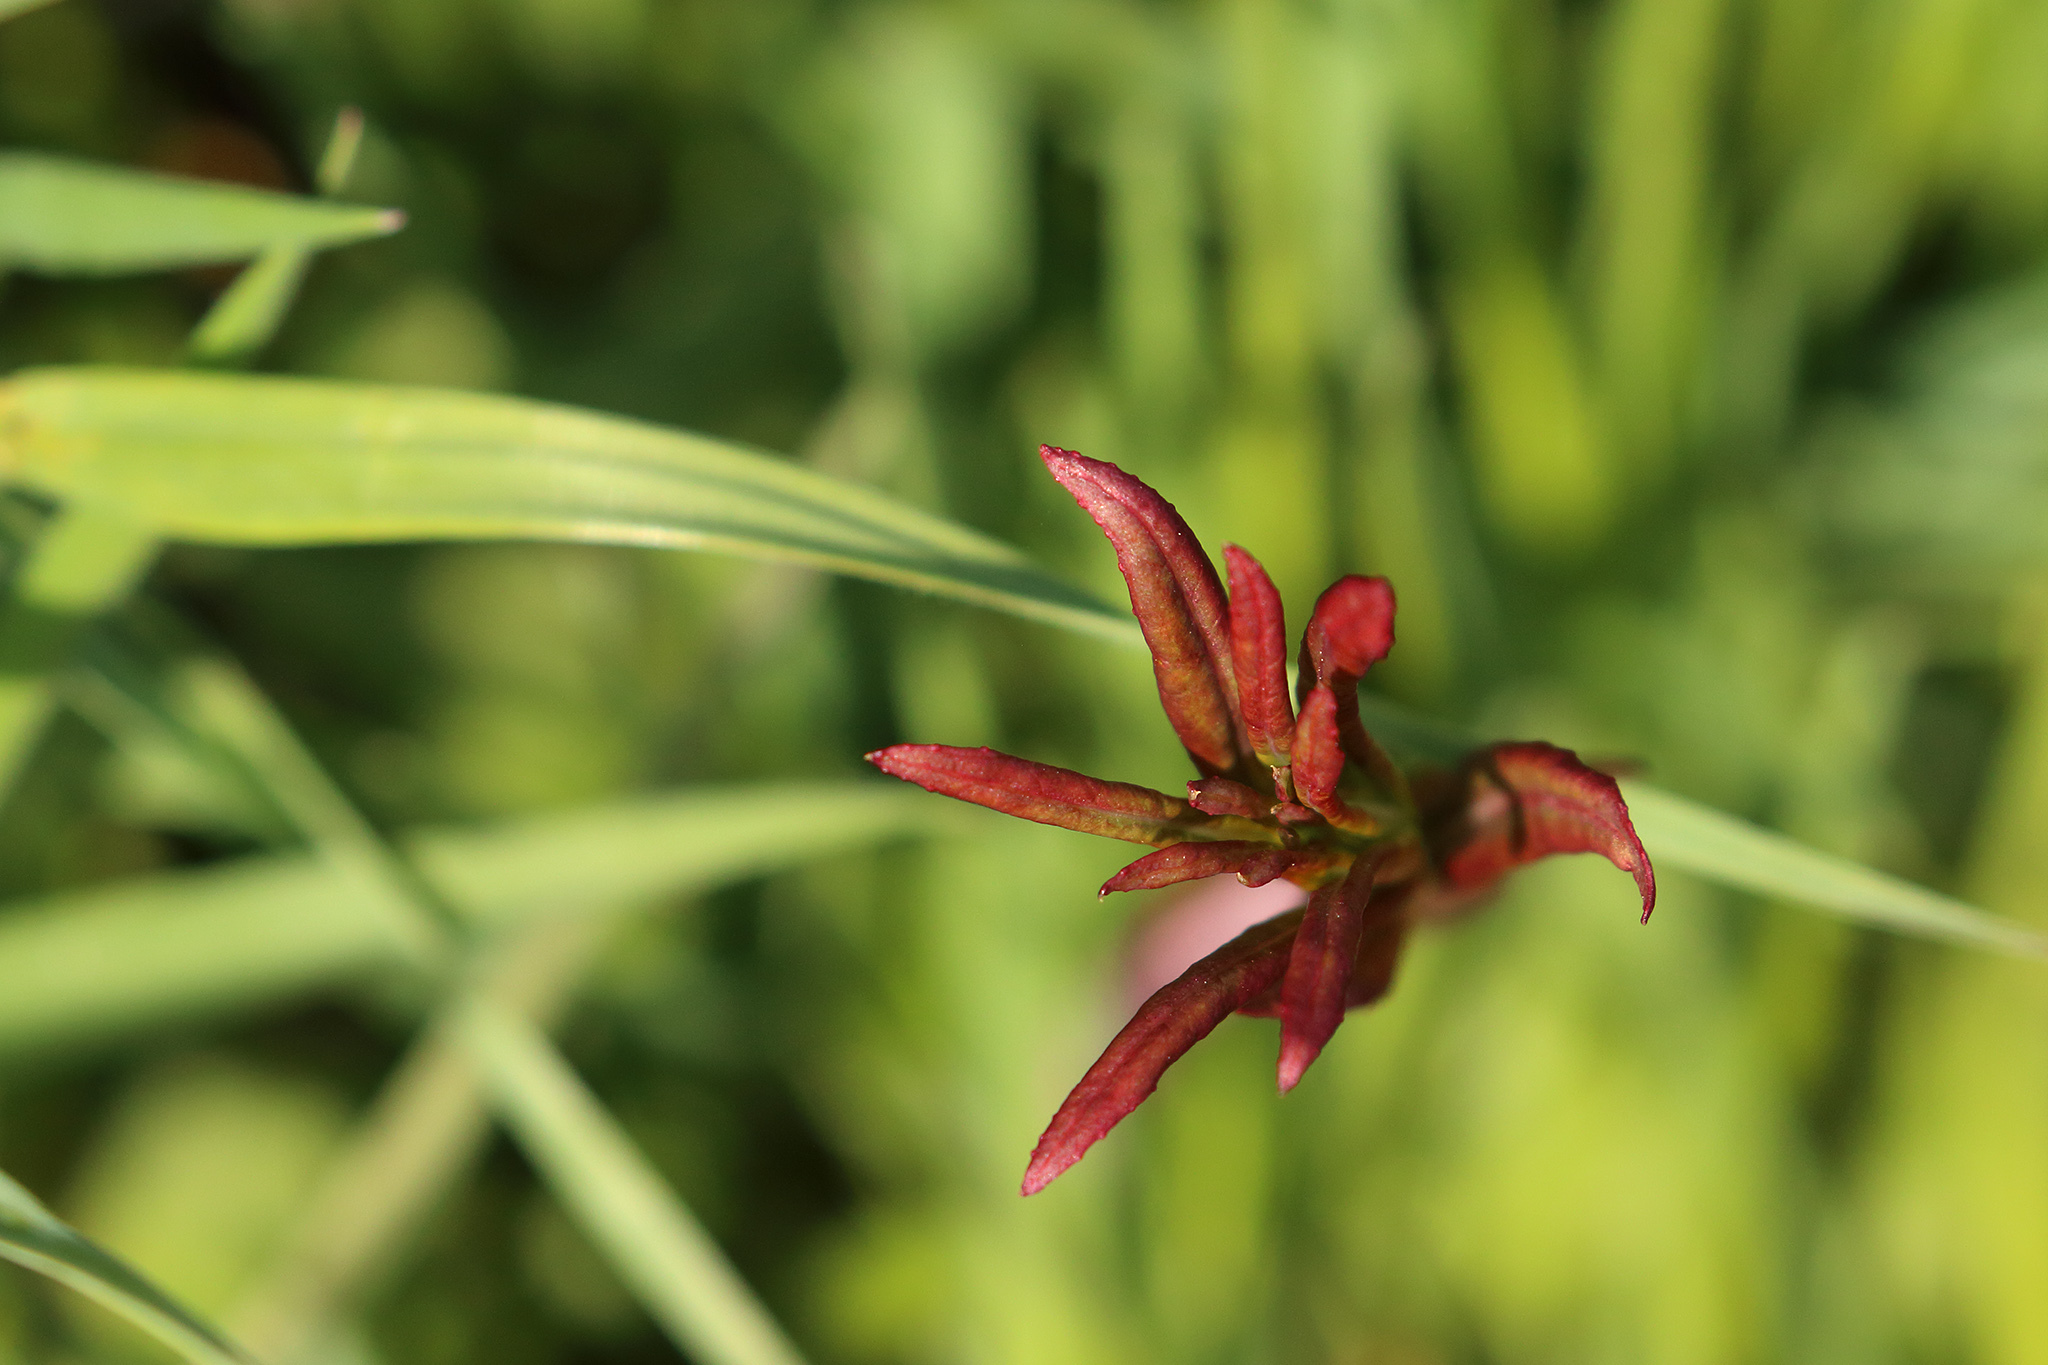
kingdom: Plantae
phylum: Tracheophyta
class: Magnoliopsida
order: Myrtales
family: Onagraceae
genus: Chamaenerion
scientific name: Chamaenerion angustifolium
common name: Fireweed
